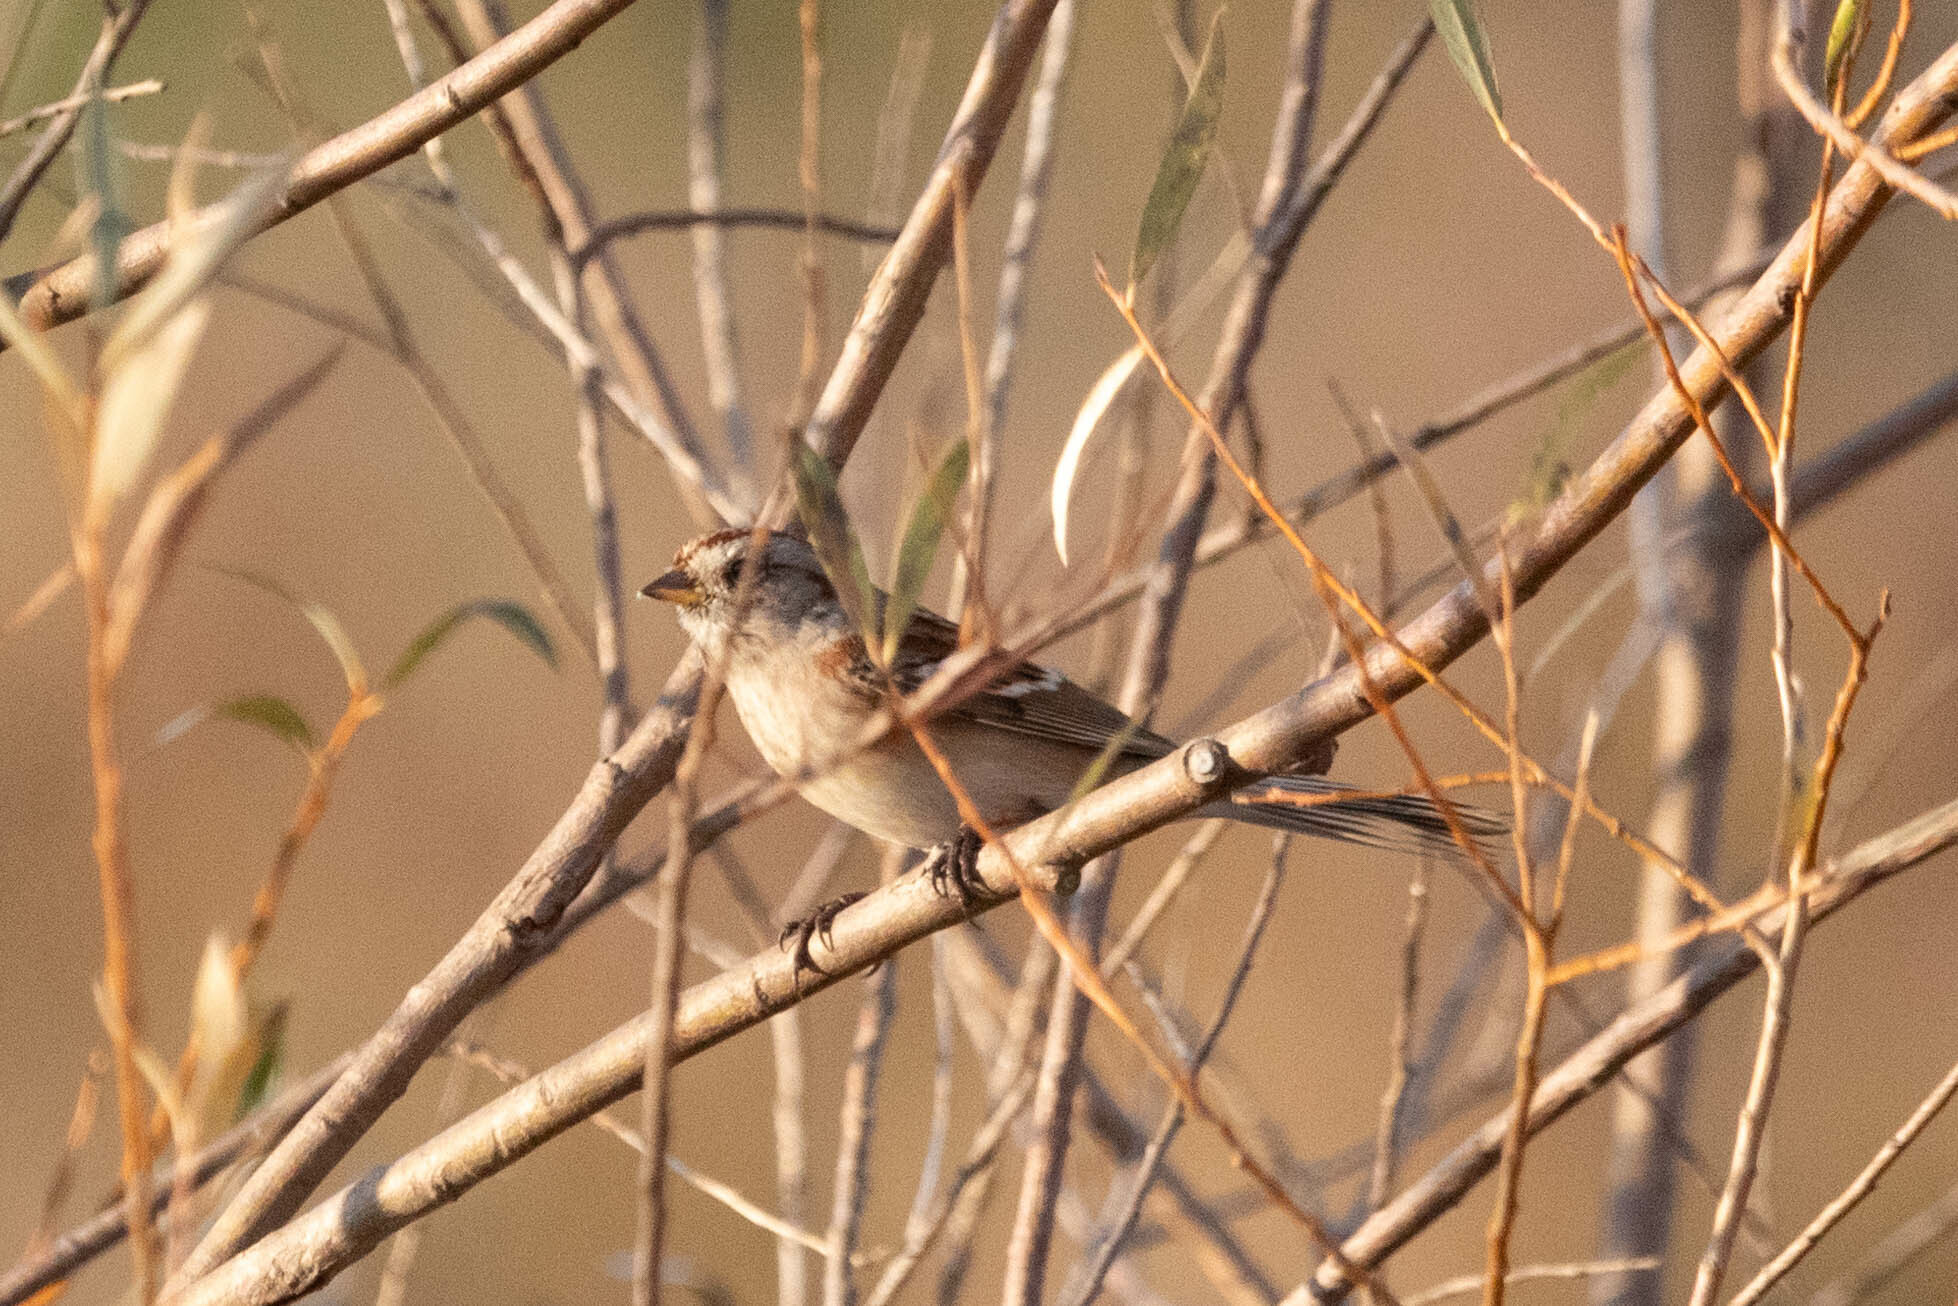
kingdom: Animalia
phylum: Chordata
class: Aves
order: Passeriformes
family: Passerellidae
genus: Spizelloides
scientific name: Spizelloides arborea
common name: American tree sparrow
